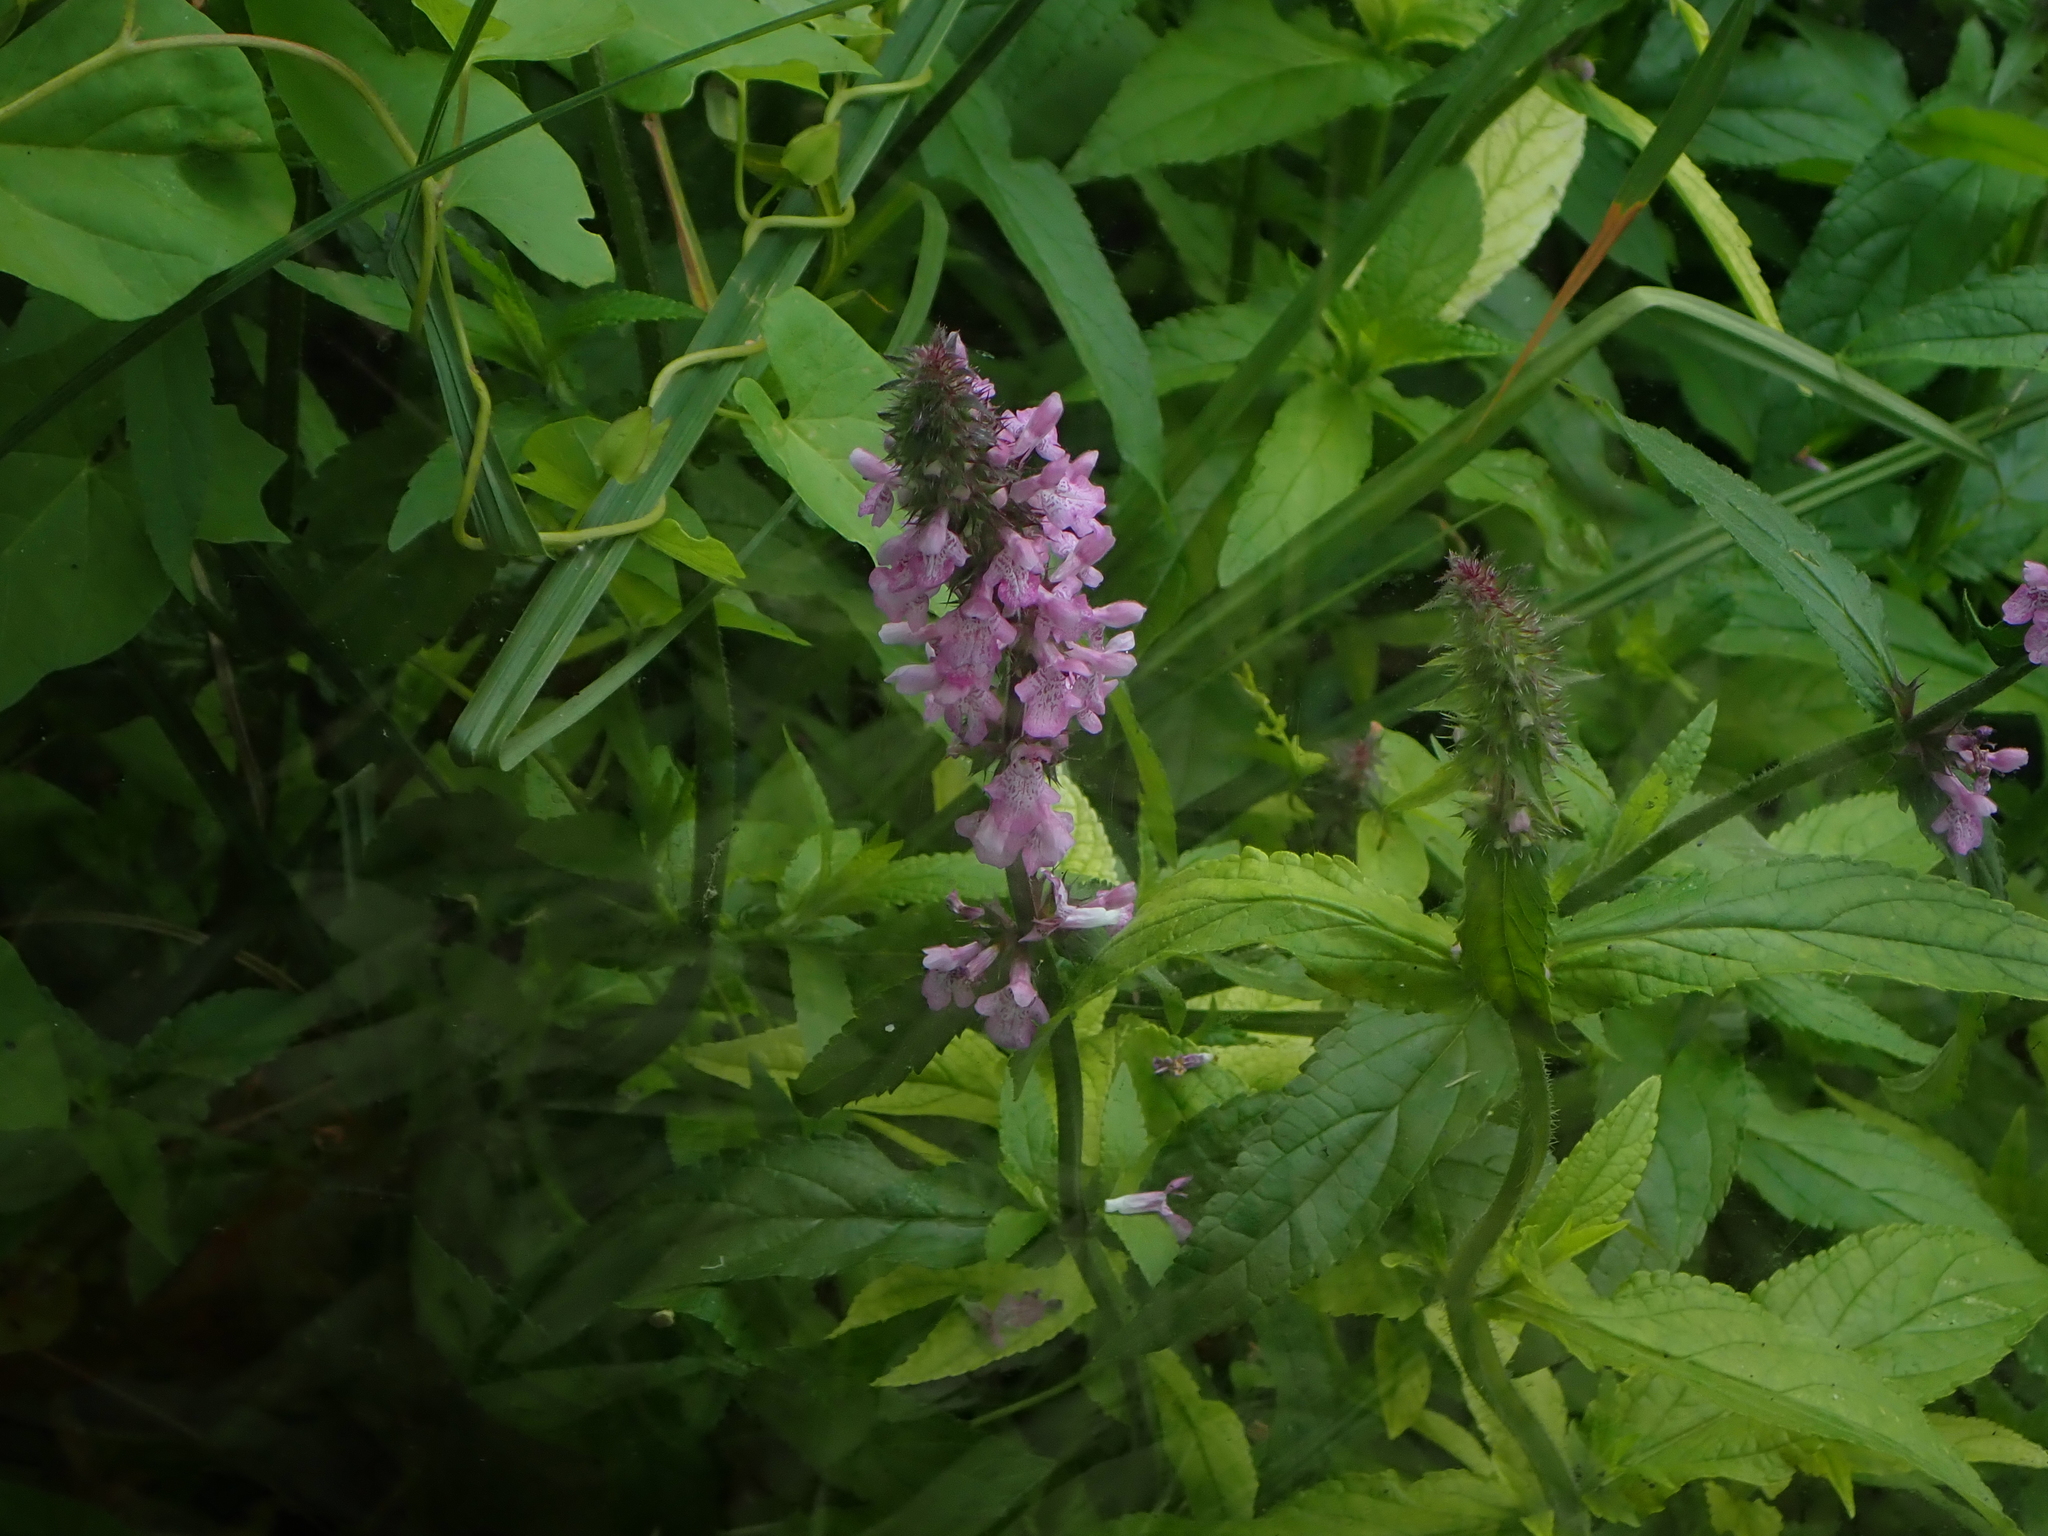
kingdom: Plantae
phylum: Tracheophyta
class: Magnoliopsida
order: Lamiales
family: Lamiaceae
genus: Stachys
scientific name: Stachys palustris
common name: Marsh woundwort
